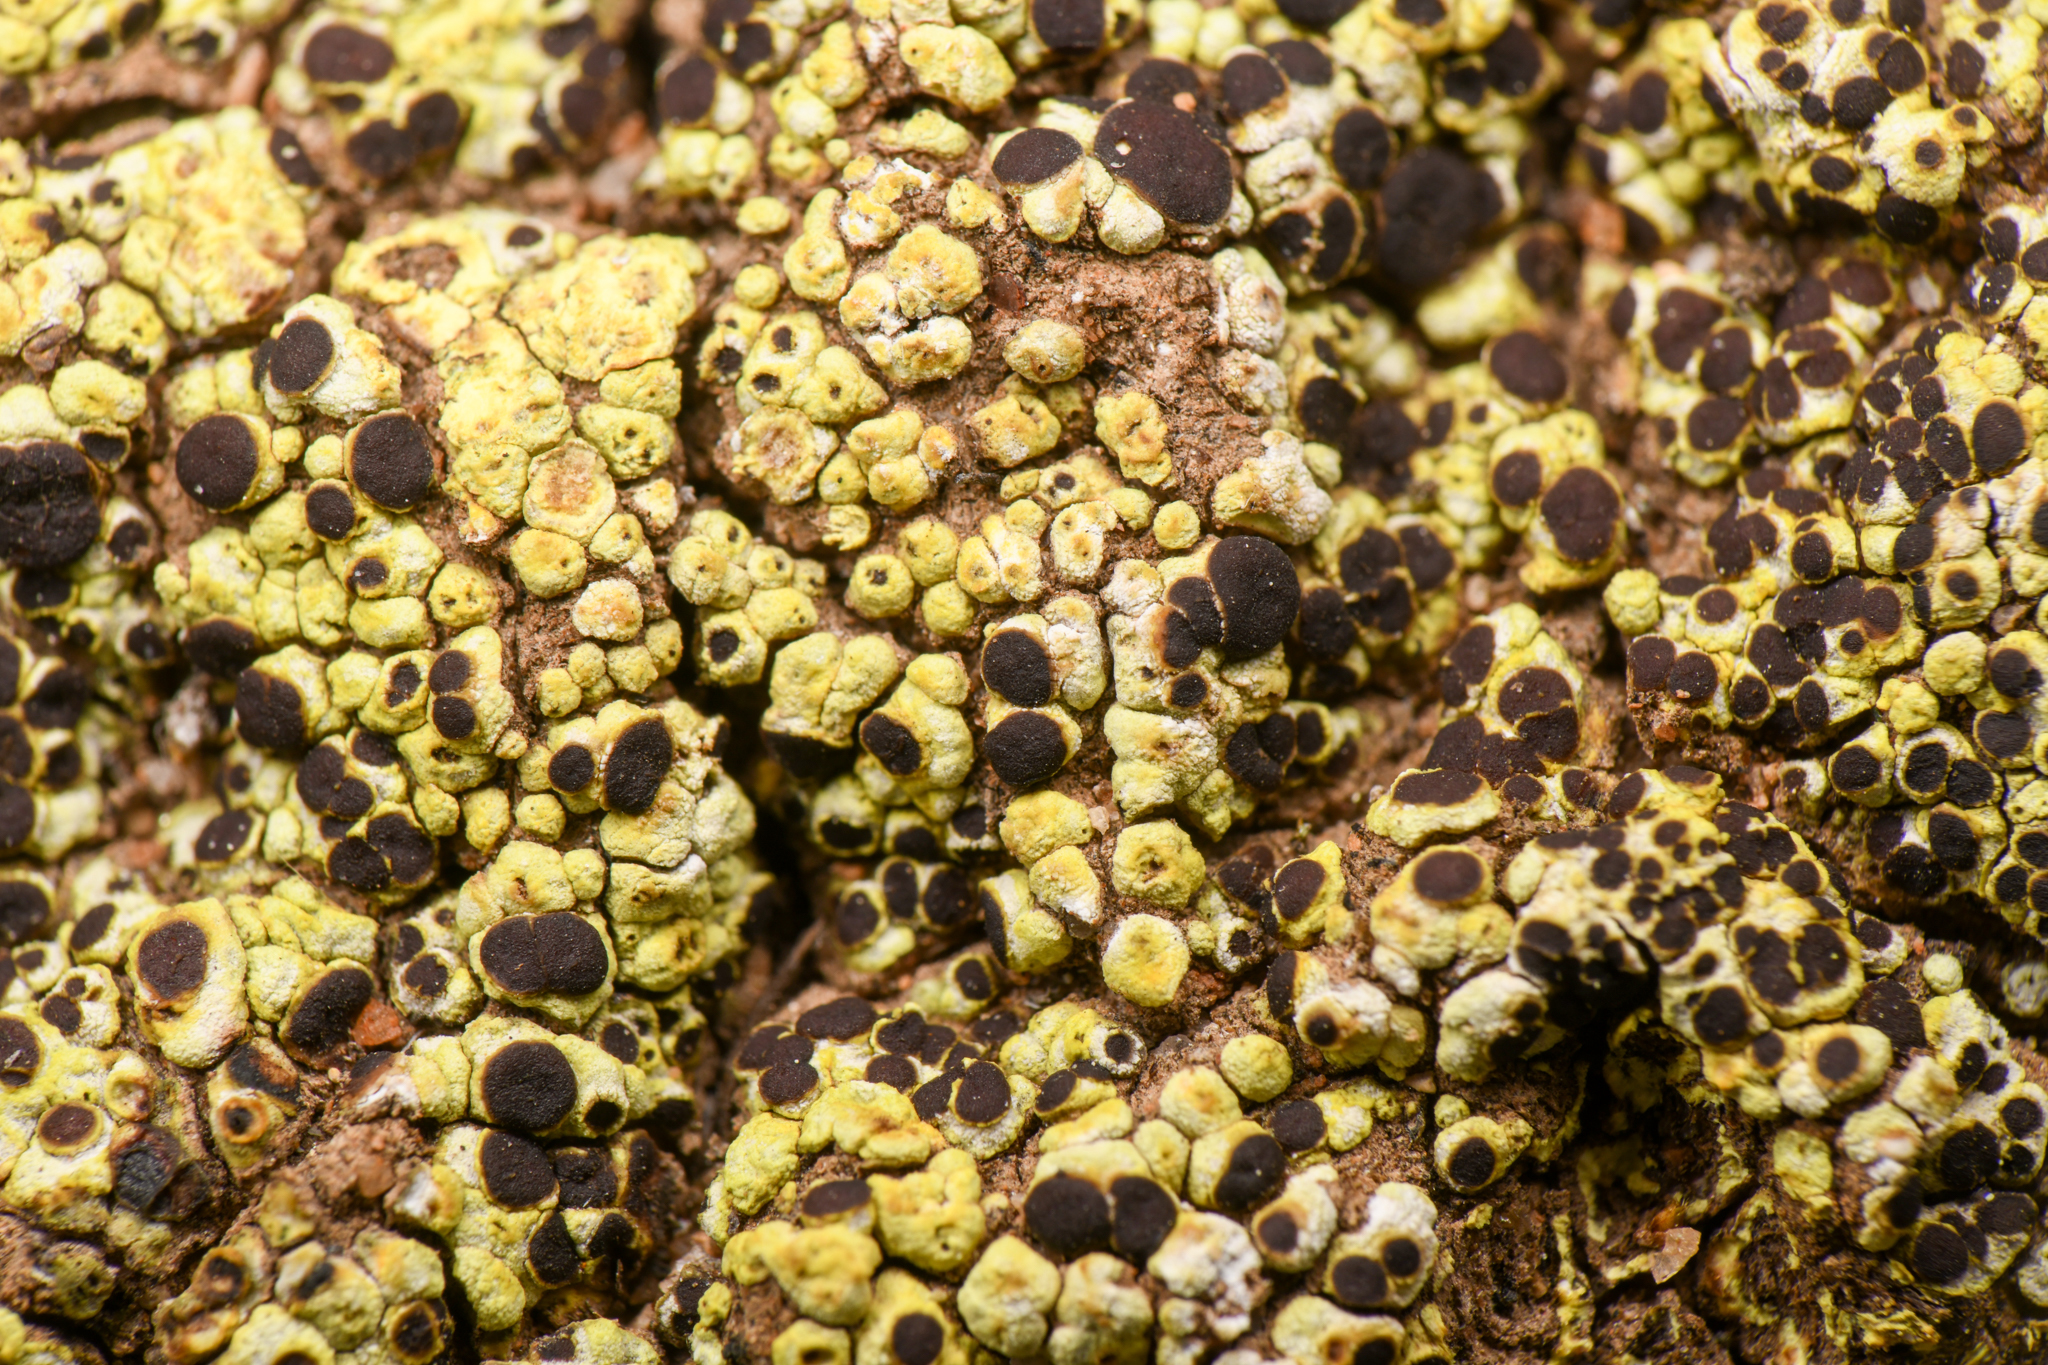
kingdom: Fungi
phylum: Ascomycota
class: Lecanoromycetes
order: Acarosporales
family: Acarosporaceae
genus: Acarospora
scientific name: Acarospora schleicheri
